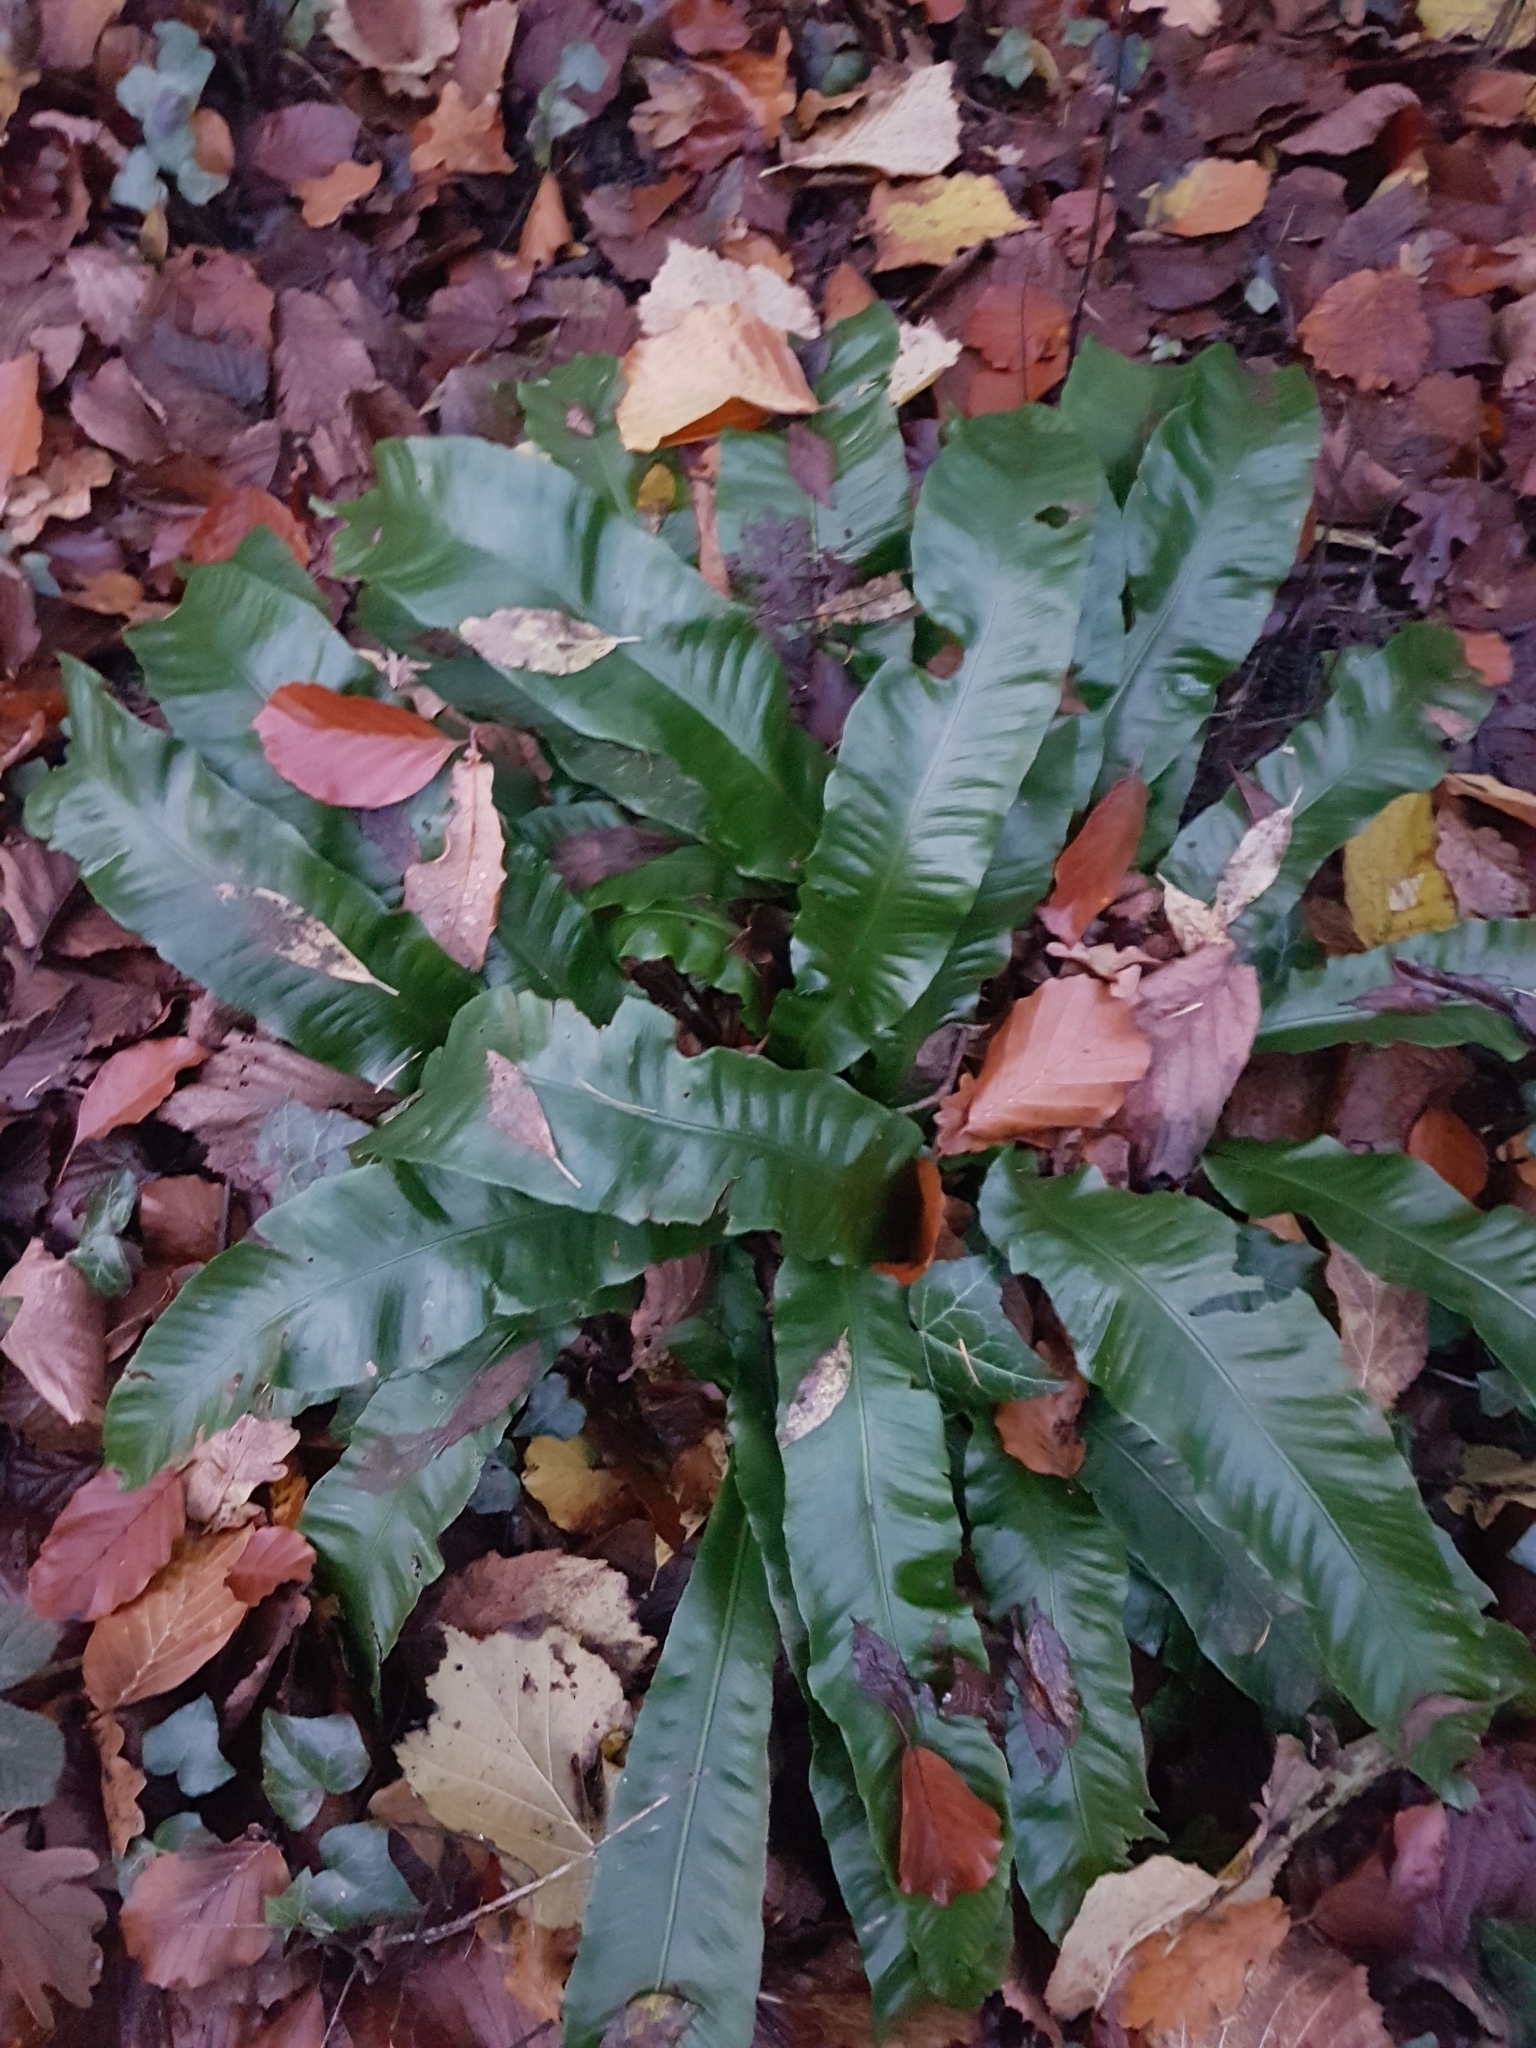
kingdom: Plantae
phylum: Tracheophyta
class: Polypodiopsida
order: Polypodiales
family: Aspleniaceae
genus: Asplenium
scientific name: Asplenium scolopendrium
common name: Hart's-tongue fern
